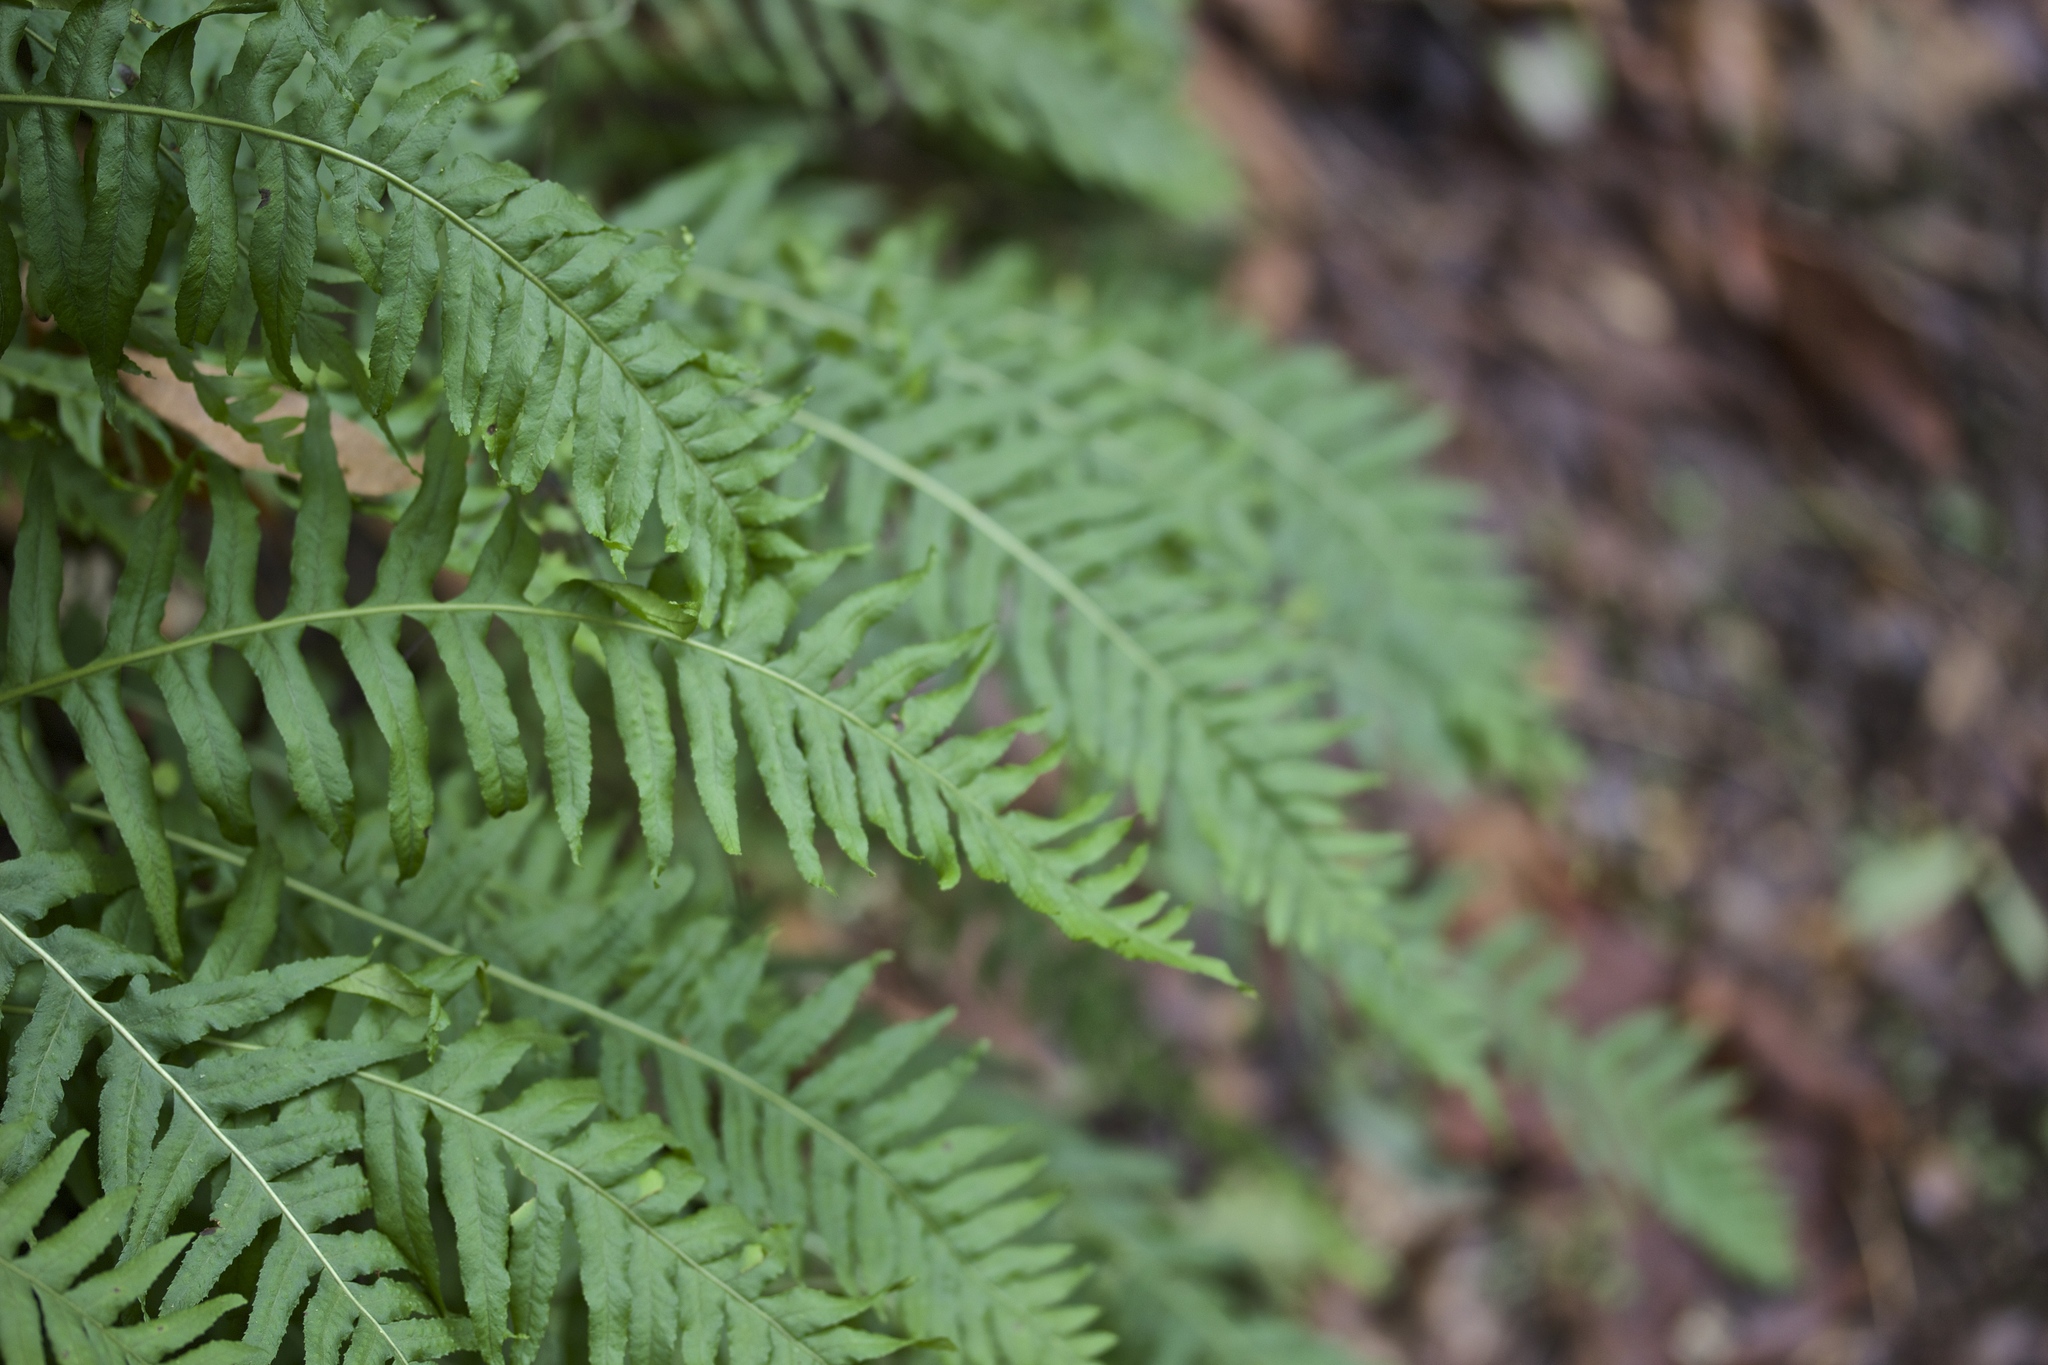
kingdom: Plantae
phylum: Tracheophyta
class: Polypodiopsida
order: Polypodiales
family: Polypodiaceae
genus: Polypodium
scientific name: Polypodium glycyrrhiza
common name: Licorice fern
